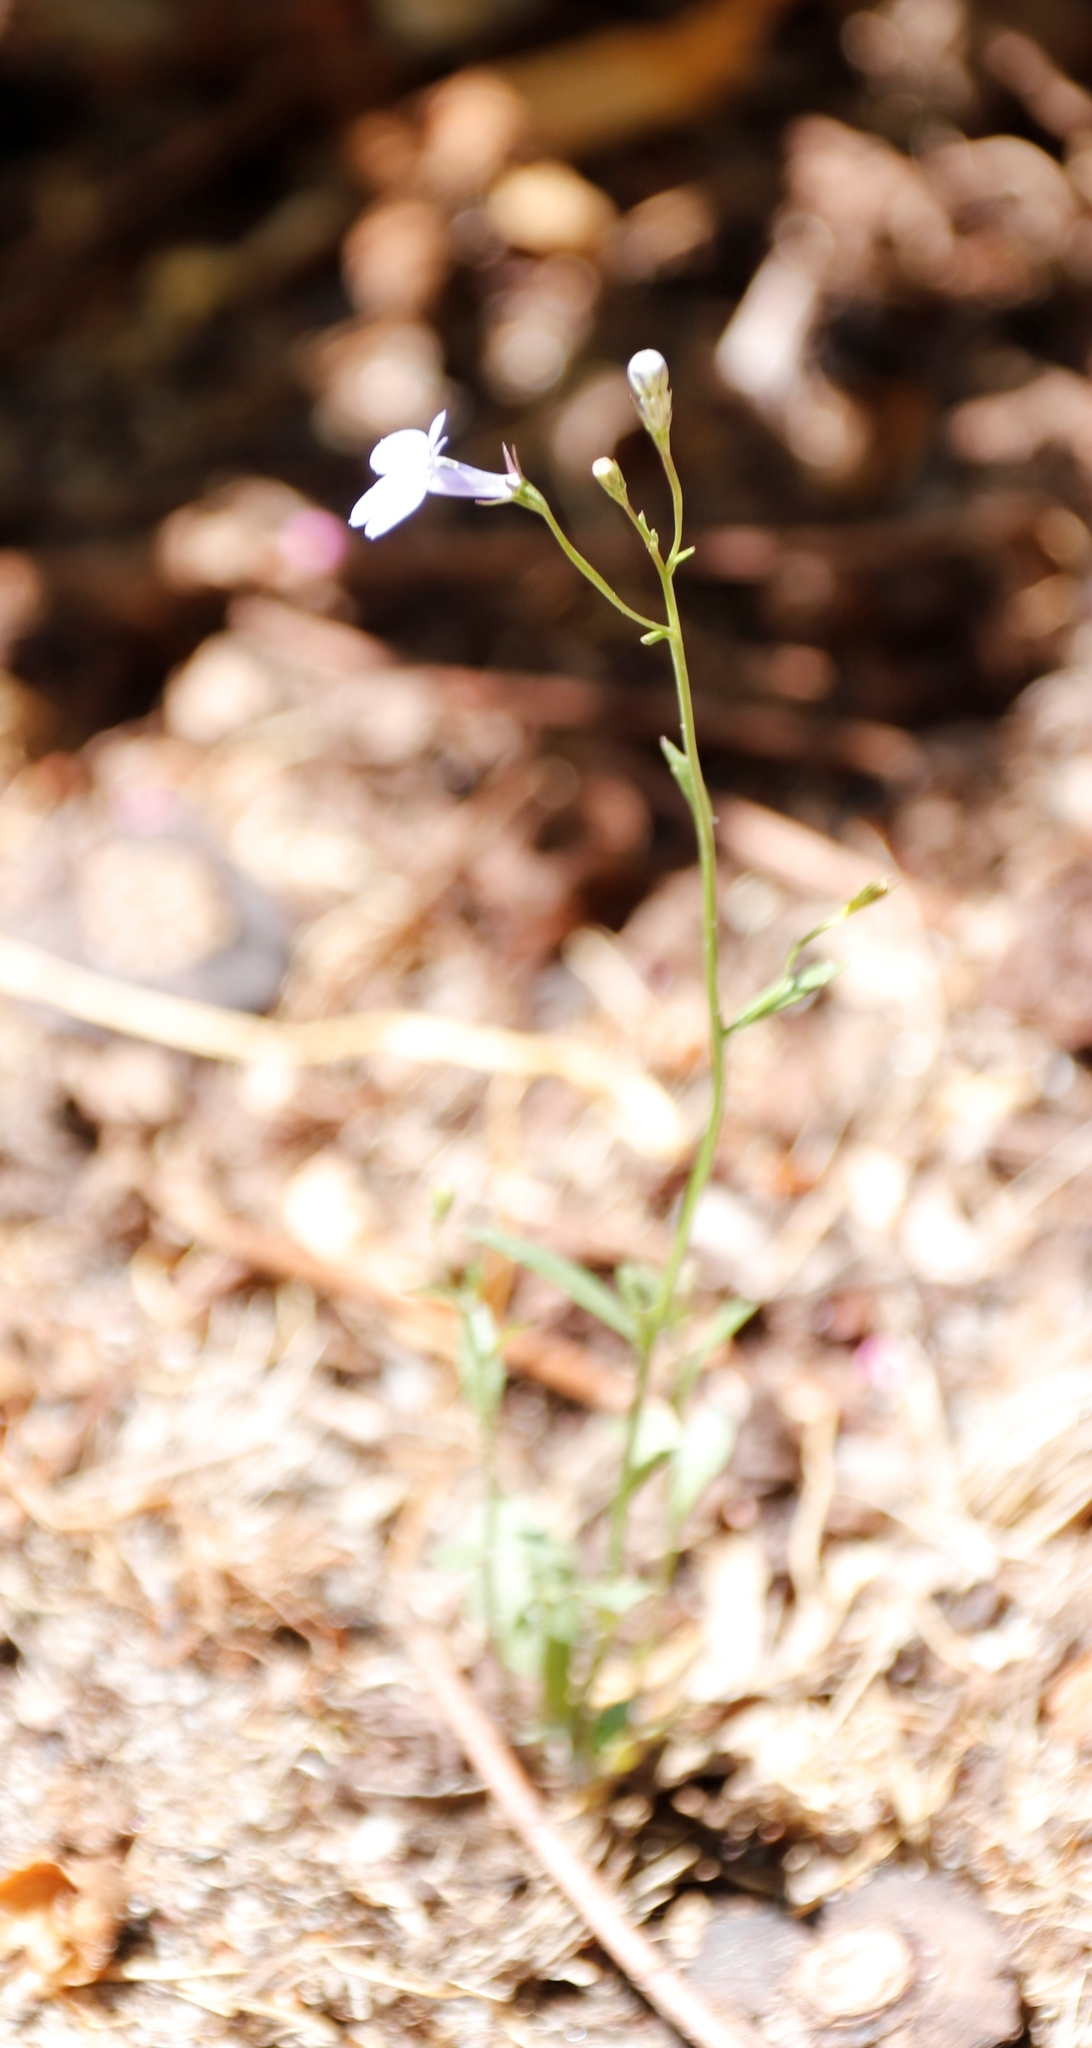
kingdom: Plantae
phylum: Tracheophyta
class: Magnoliopsida
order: Asterales
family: Campanulaceae
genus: Lobelia
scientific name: Lobelia erinus
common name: Edging lobelia
